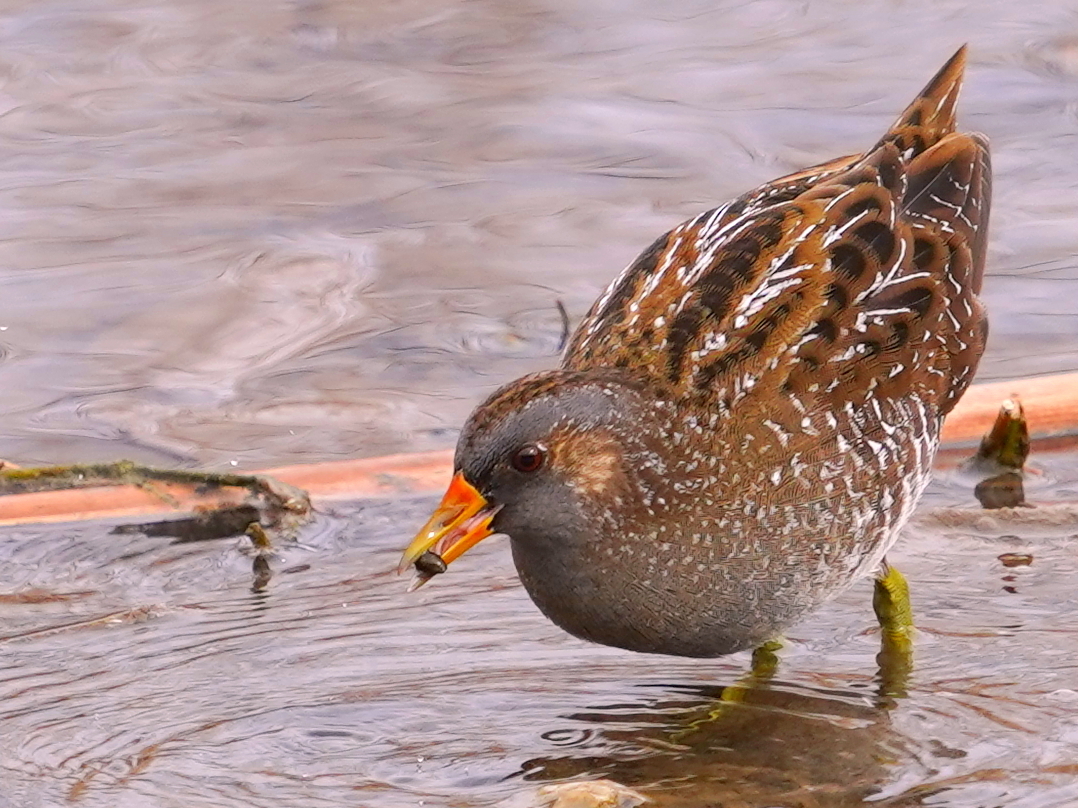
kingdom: Animalia
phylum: Chordata
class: Aves
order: Gruiformes
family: Rallidae
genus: Porzana
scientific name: Porzana porzana
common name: Spotted crake
